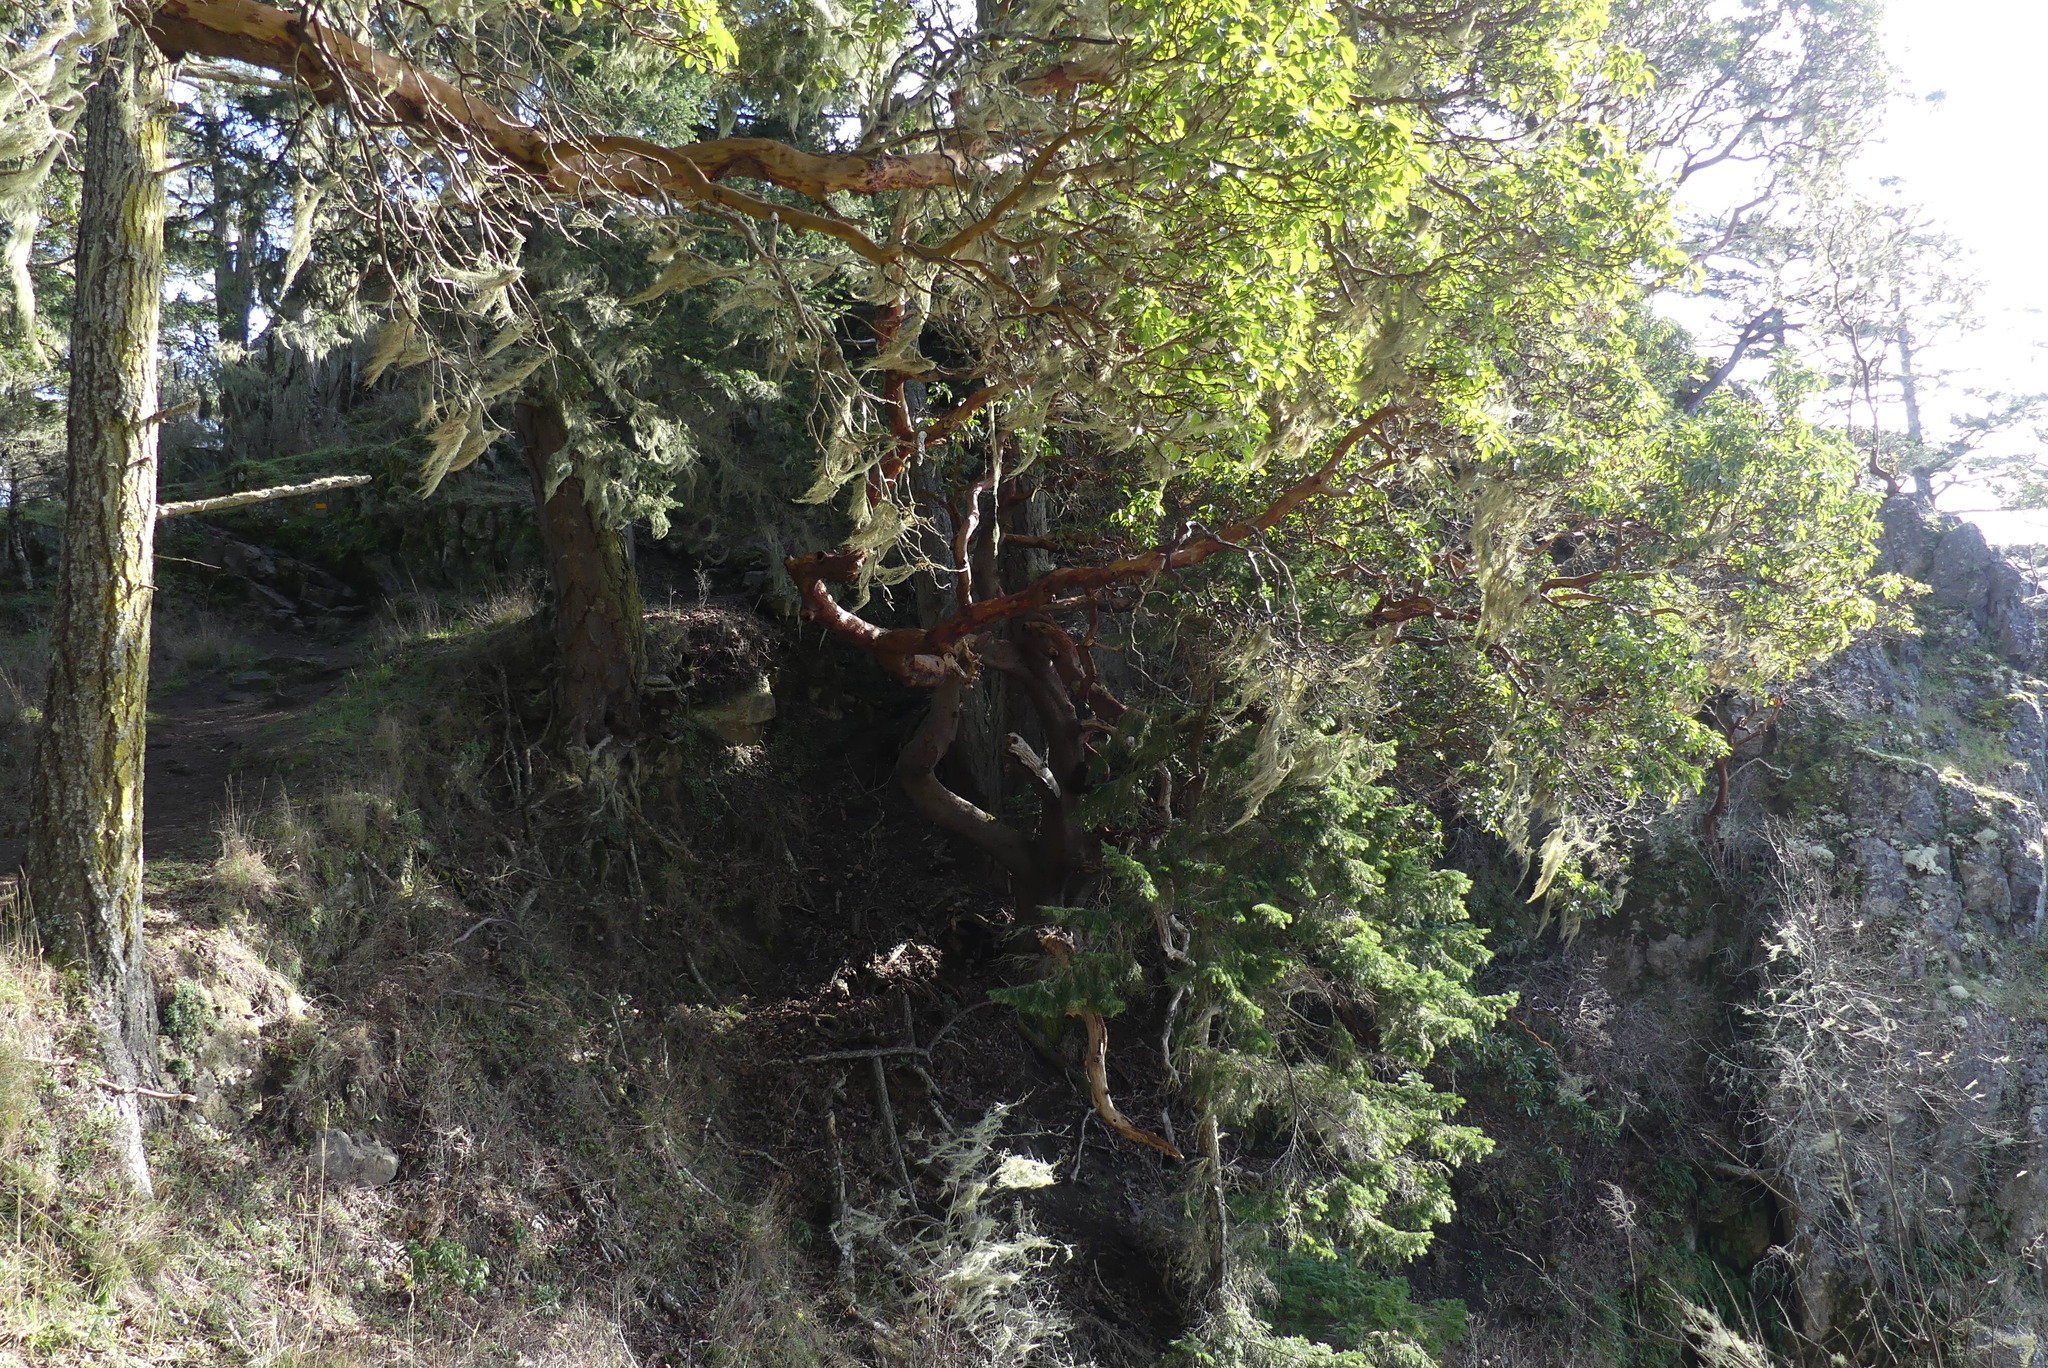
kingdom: Plantae
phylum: Tracheophyta
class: Magnoliopsida
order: Ericales
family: Ericaceae
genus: Arbutus
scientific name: Arbutus menziesii
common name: Pacific madrone
